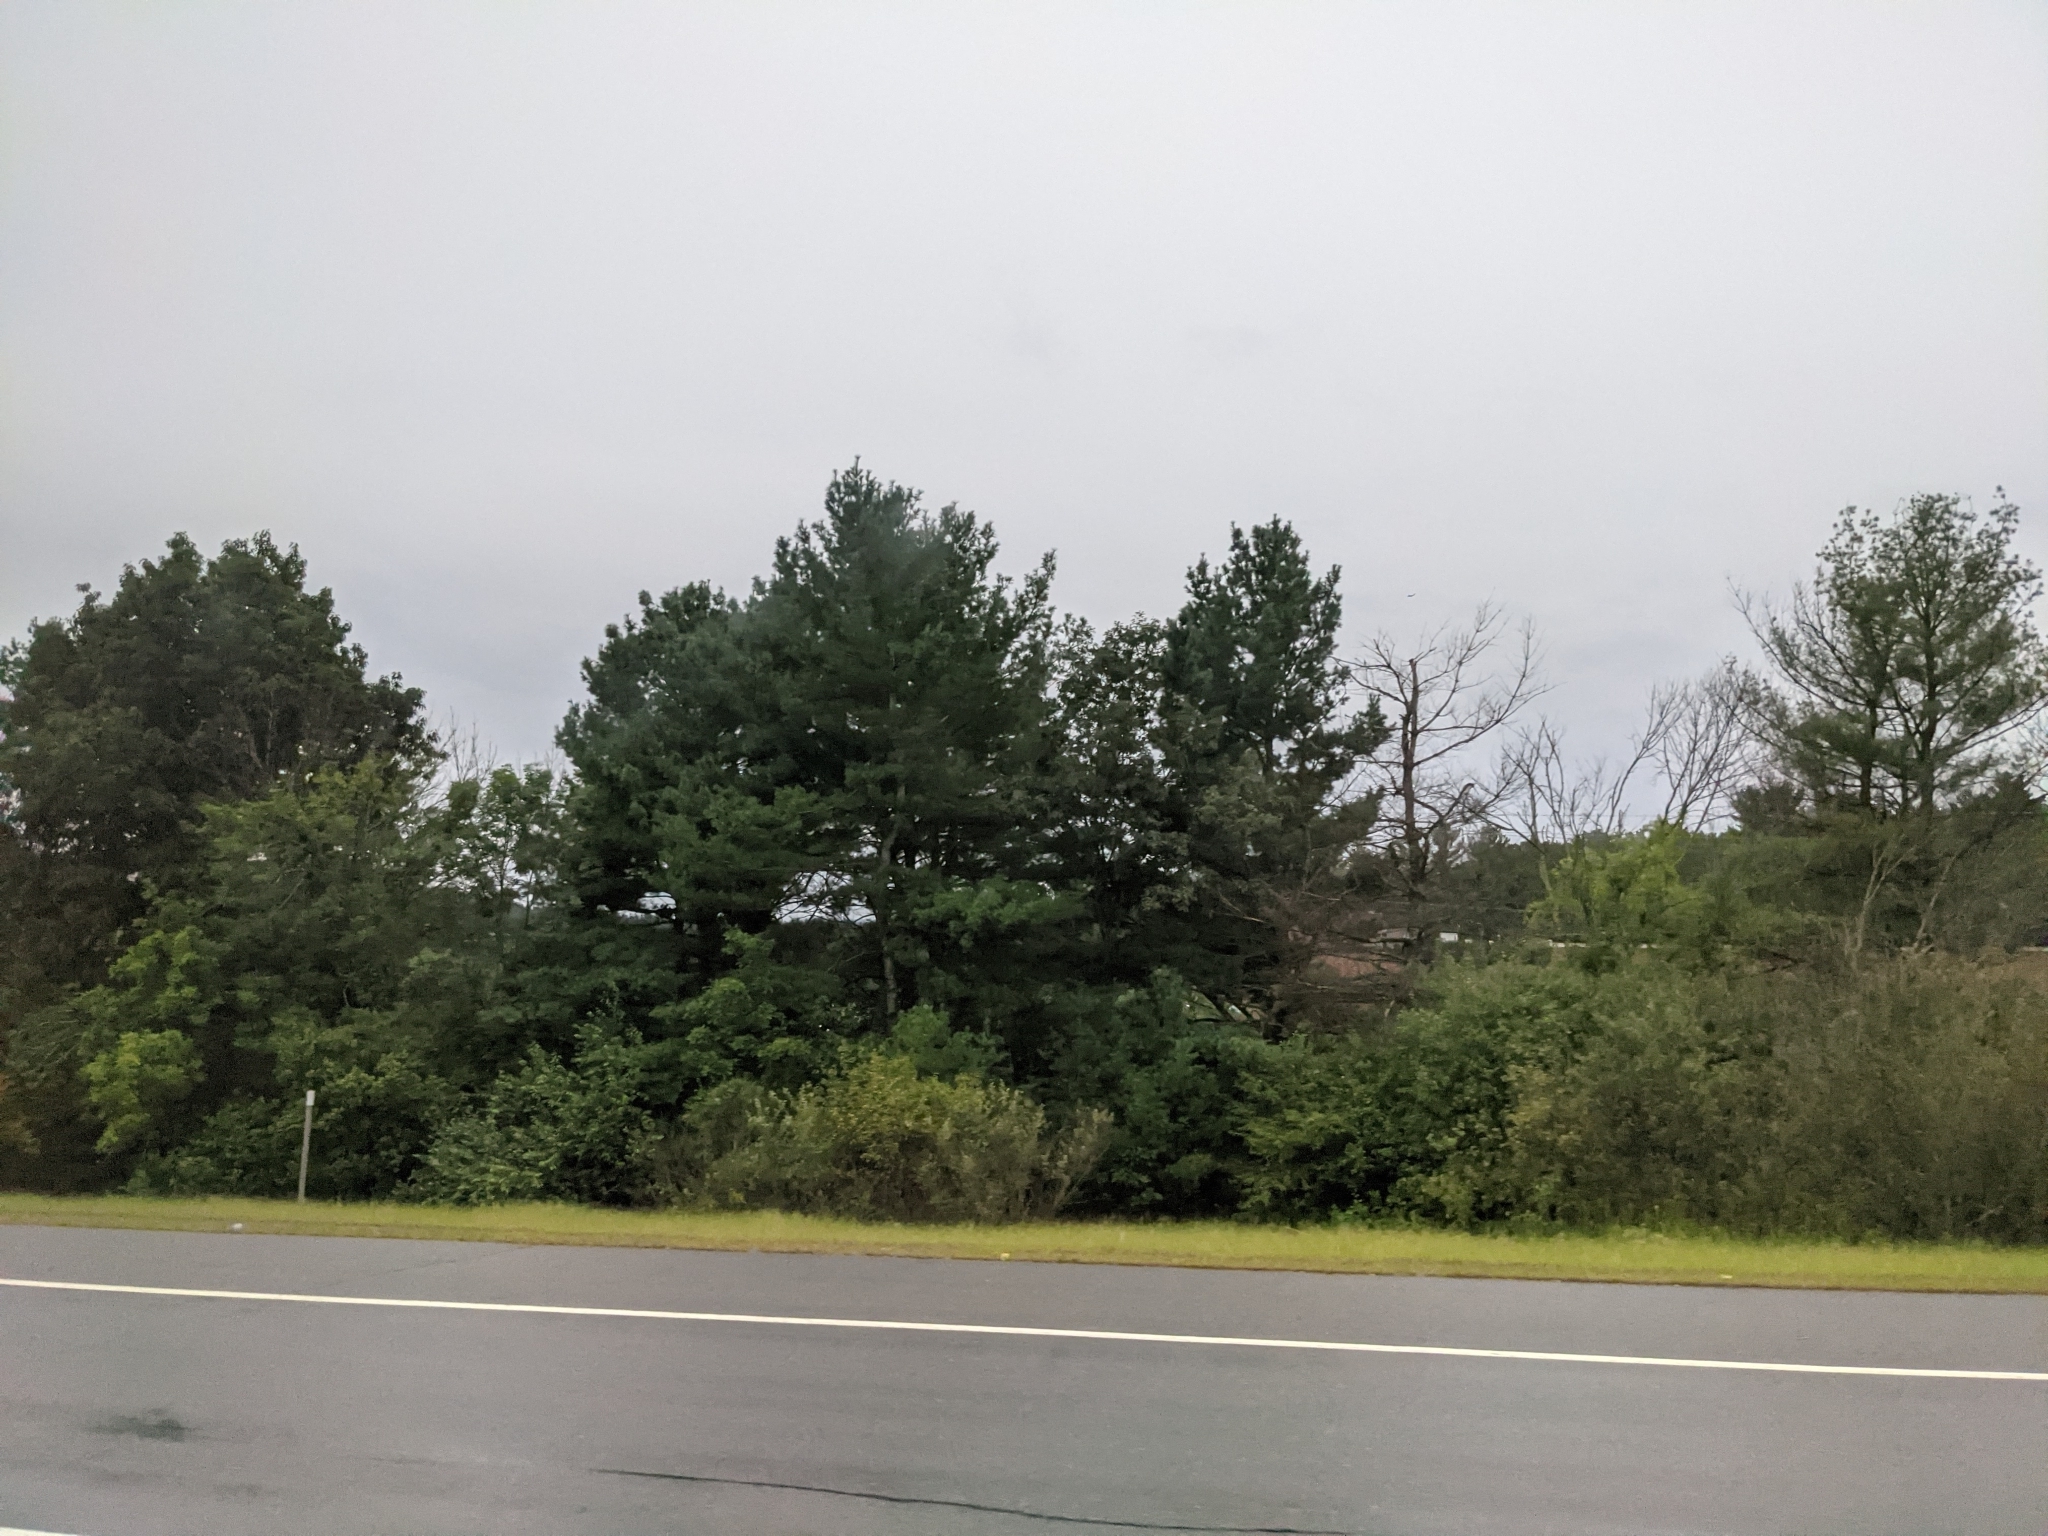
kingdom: Plantae
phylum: Tracheophyta
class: Pinopsida
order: Pinales
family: Pinaceae
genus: Pinus
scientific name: Pinus strobus
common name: Weymouth pine
